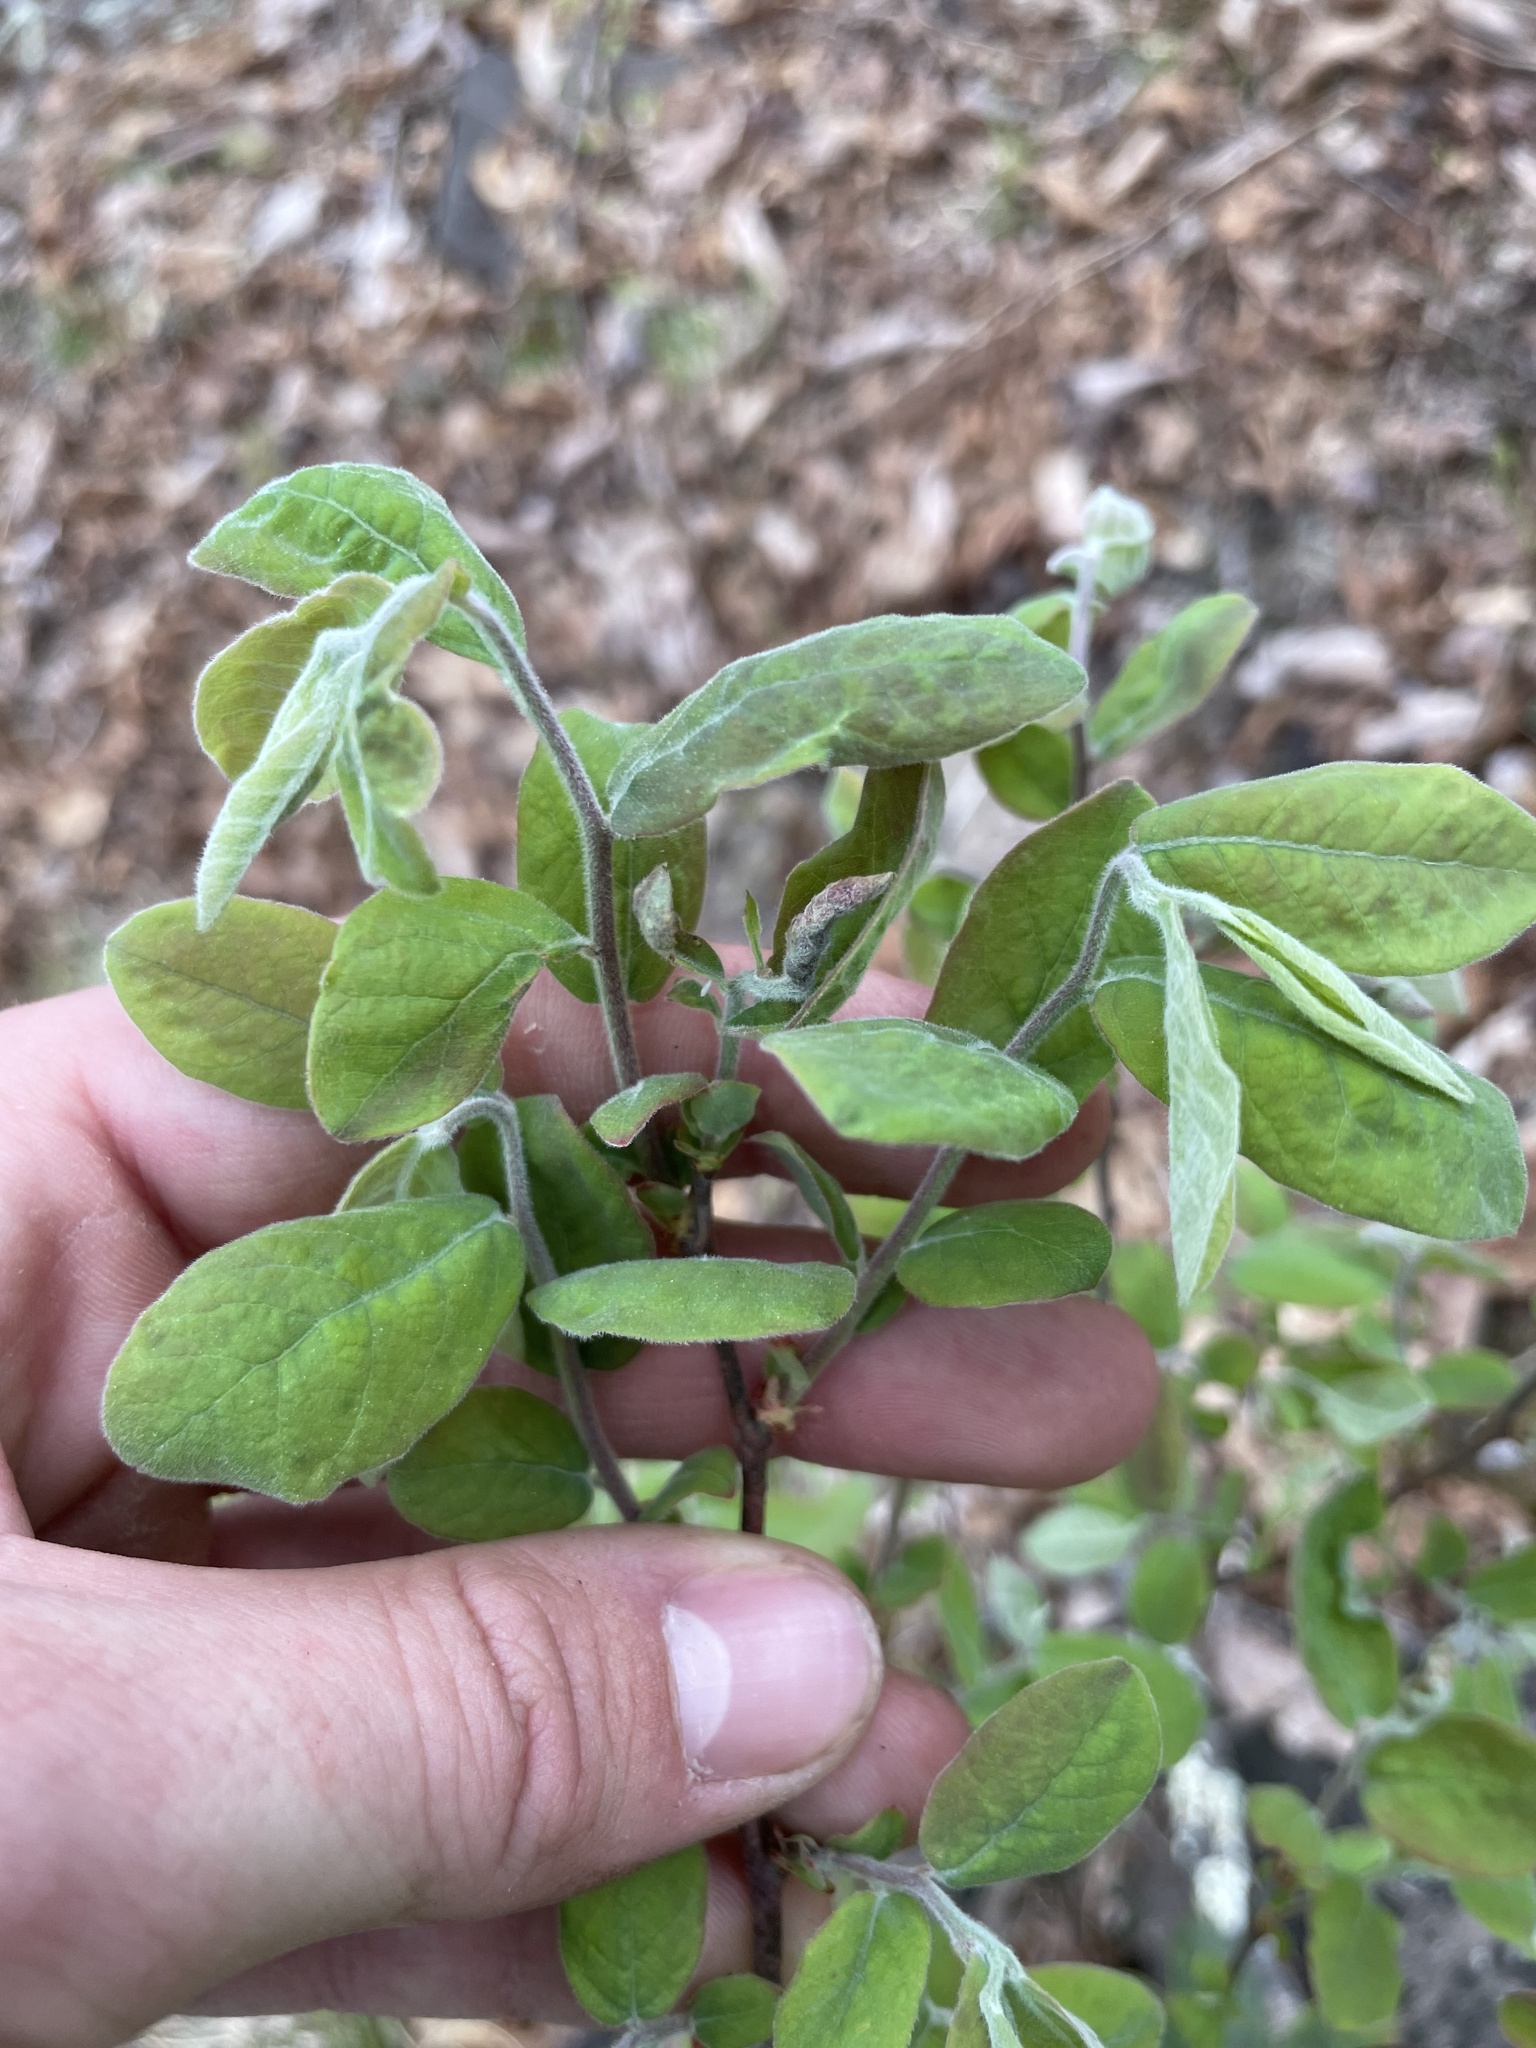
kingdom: Plantae
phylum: Tracheophyta
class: Magnoliopsida
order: Ericales
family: Ericaceae
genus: Gaylussacia
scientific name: Gaylussacia ursina
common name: Bear huckleberry
